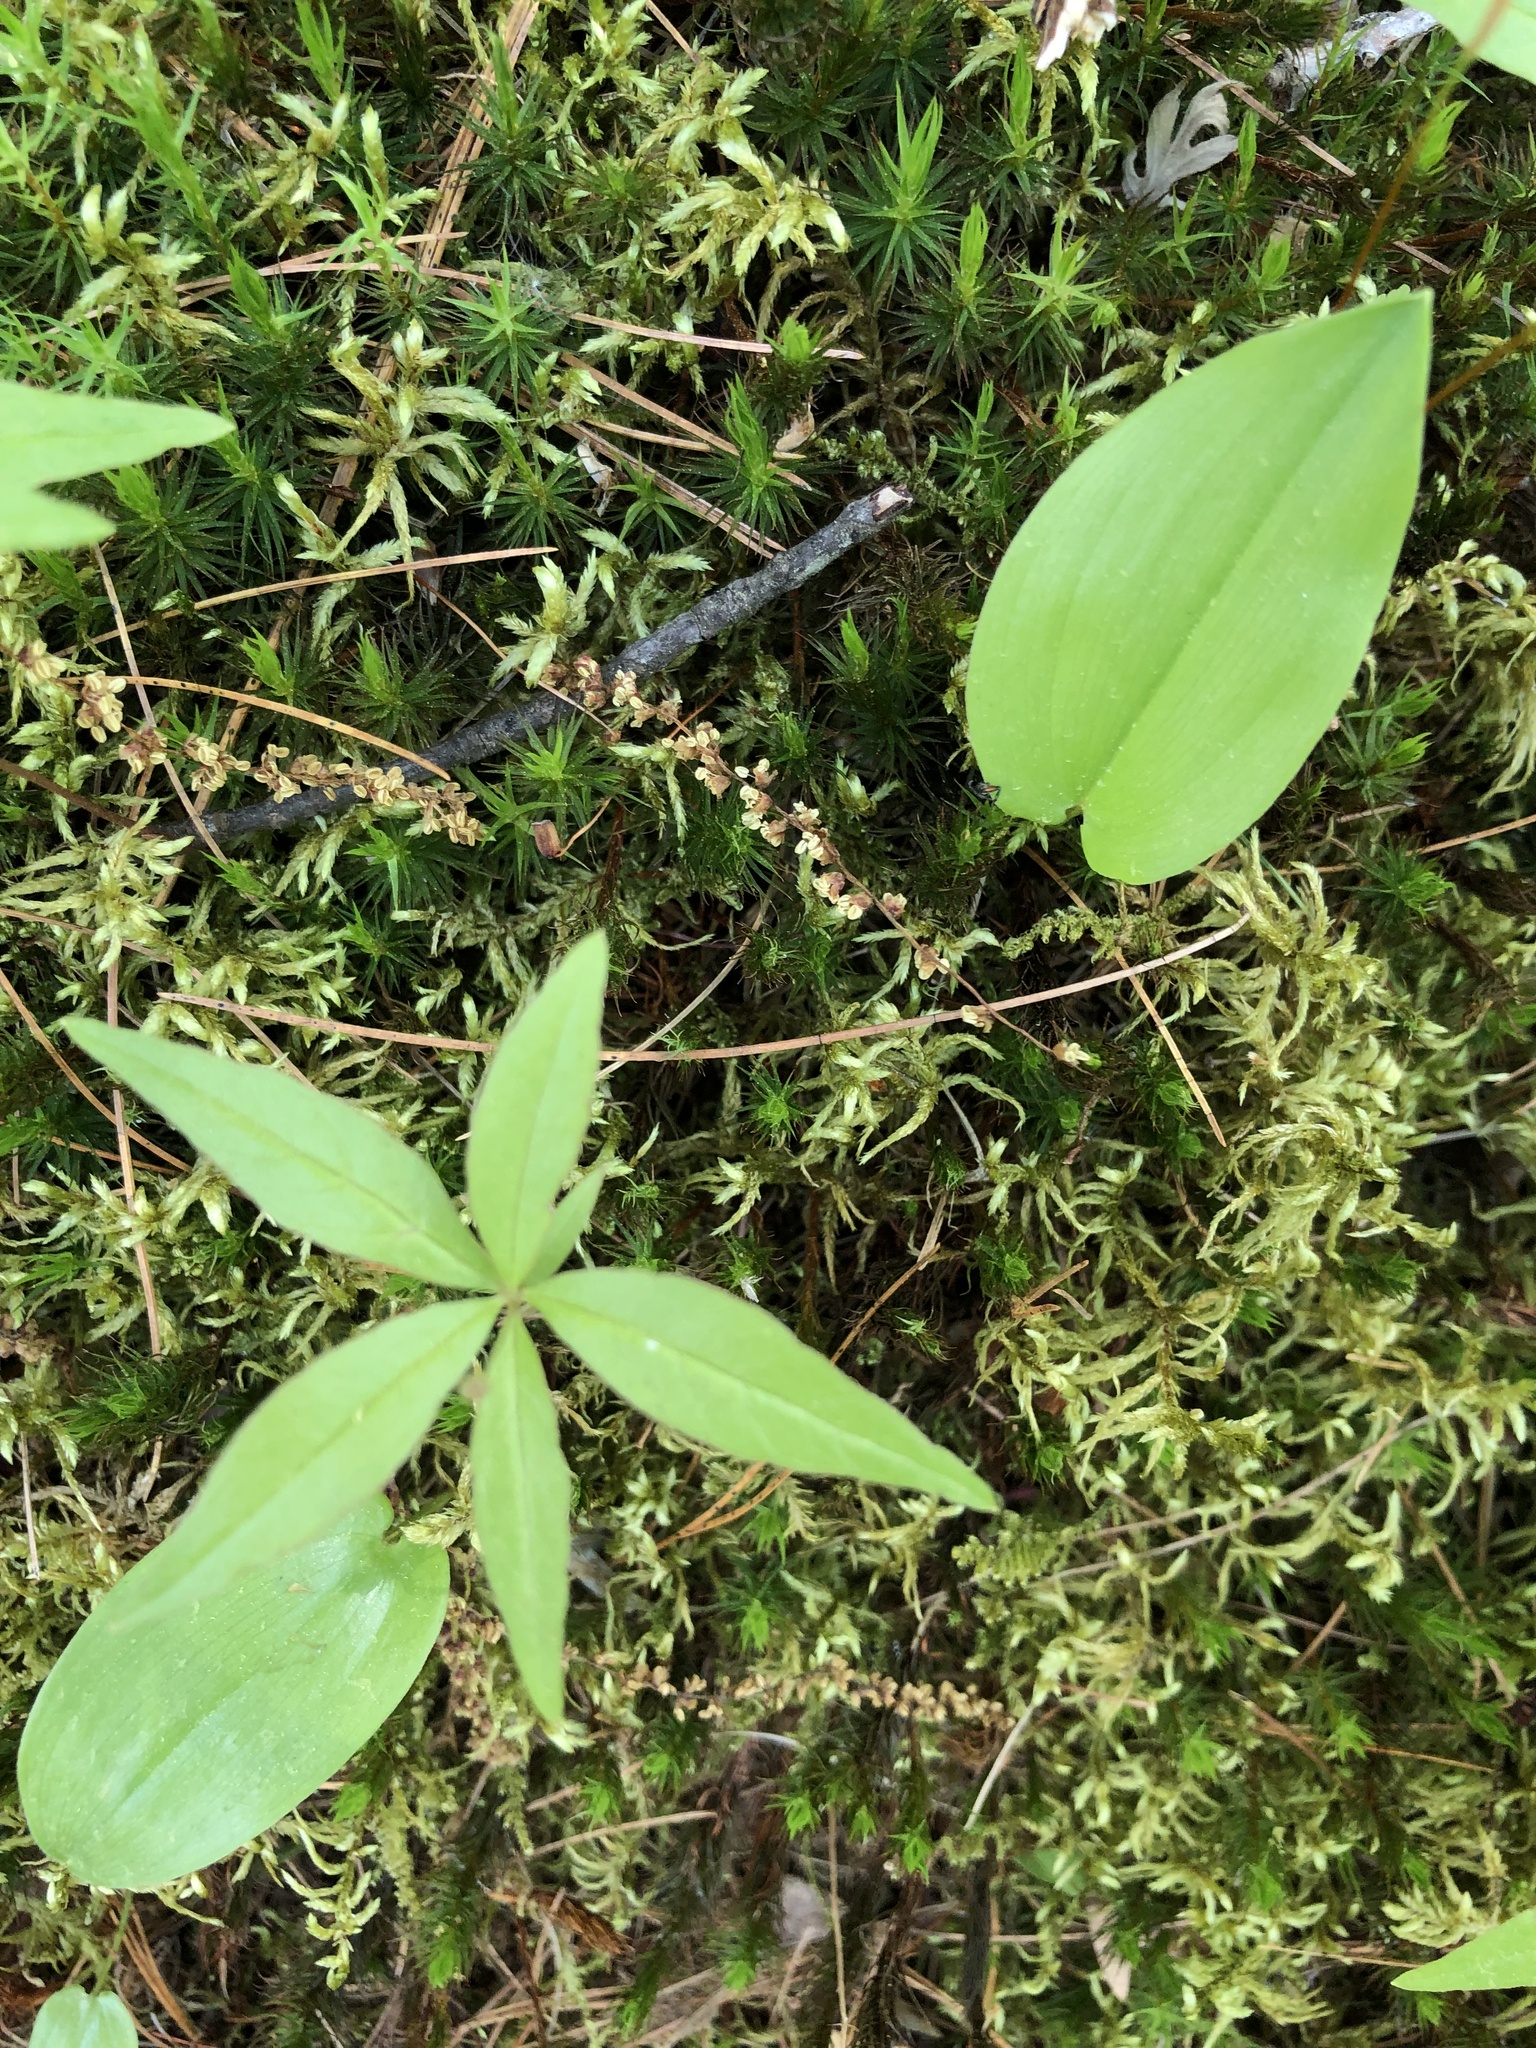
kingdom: Plantae
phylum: Tracheophyta
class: Magnoliopsida
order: Ericales
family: Primulaceae
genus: Lysimachia
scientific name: Lysimachia borealis
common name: American starflower
